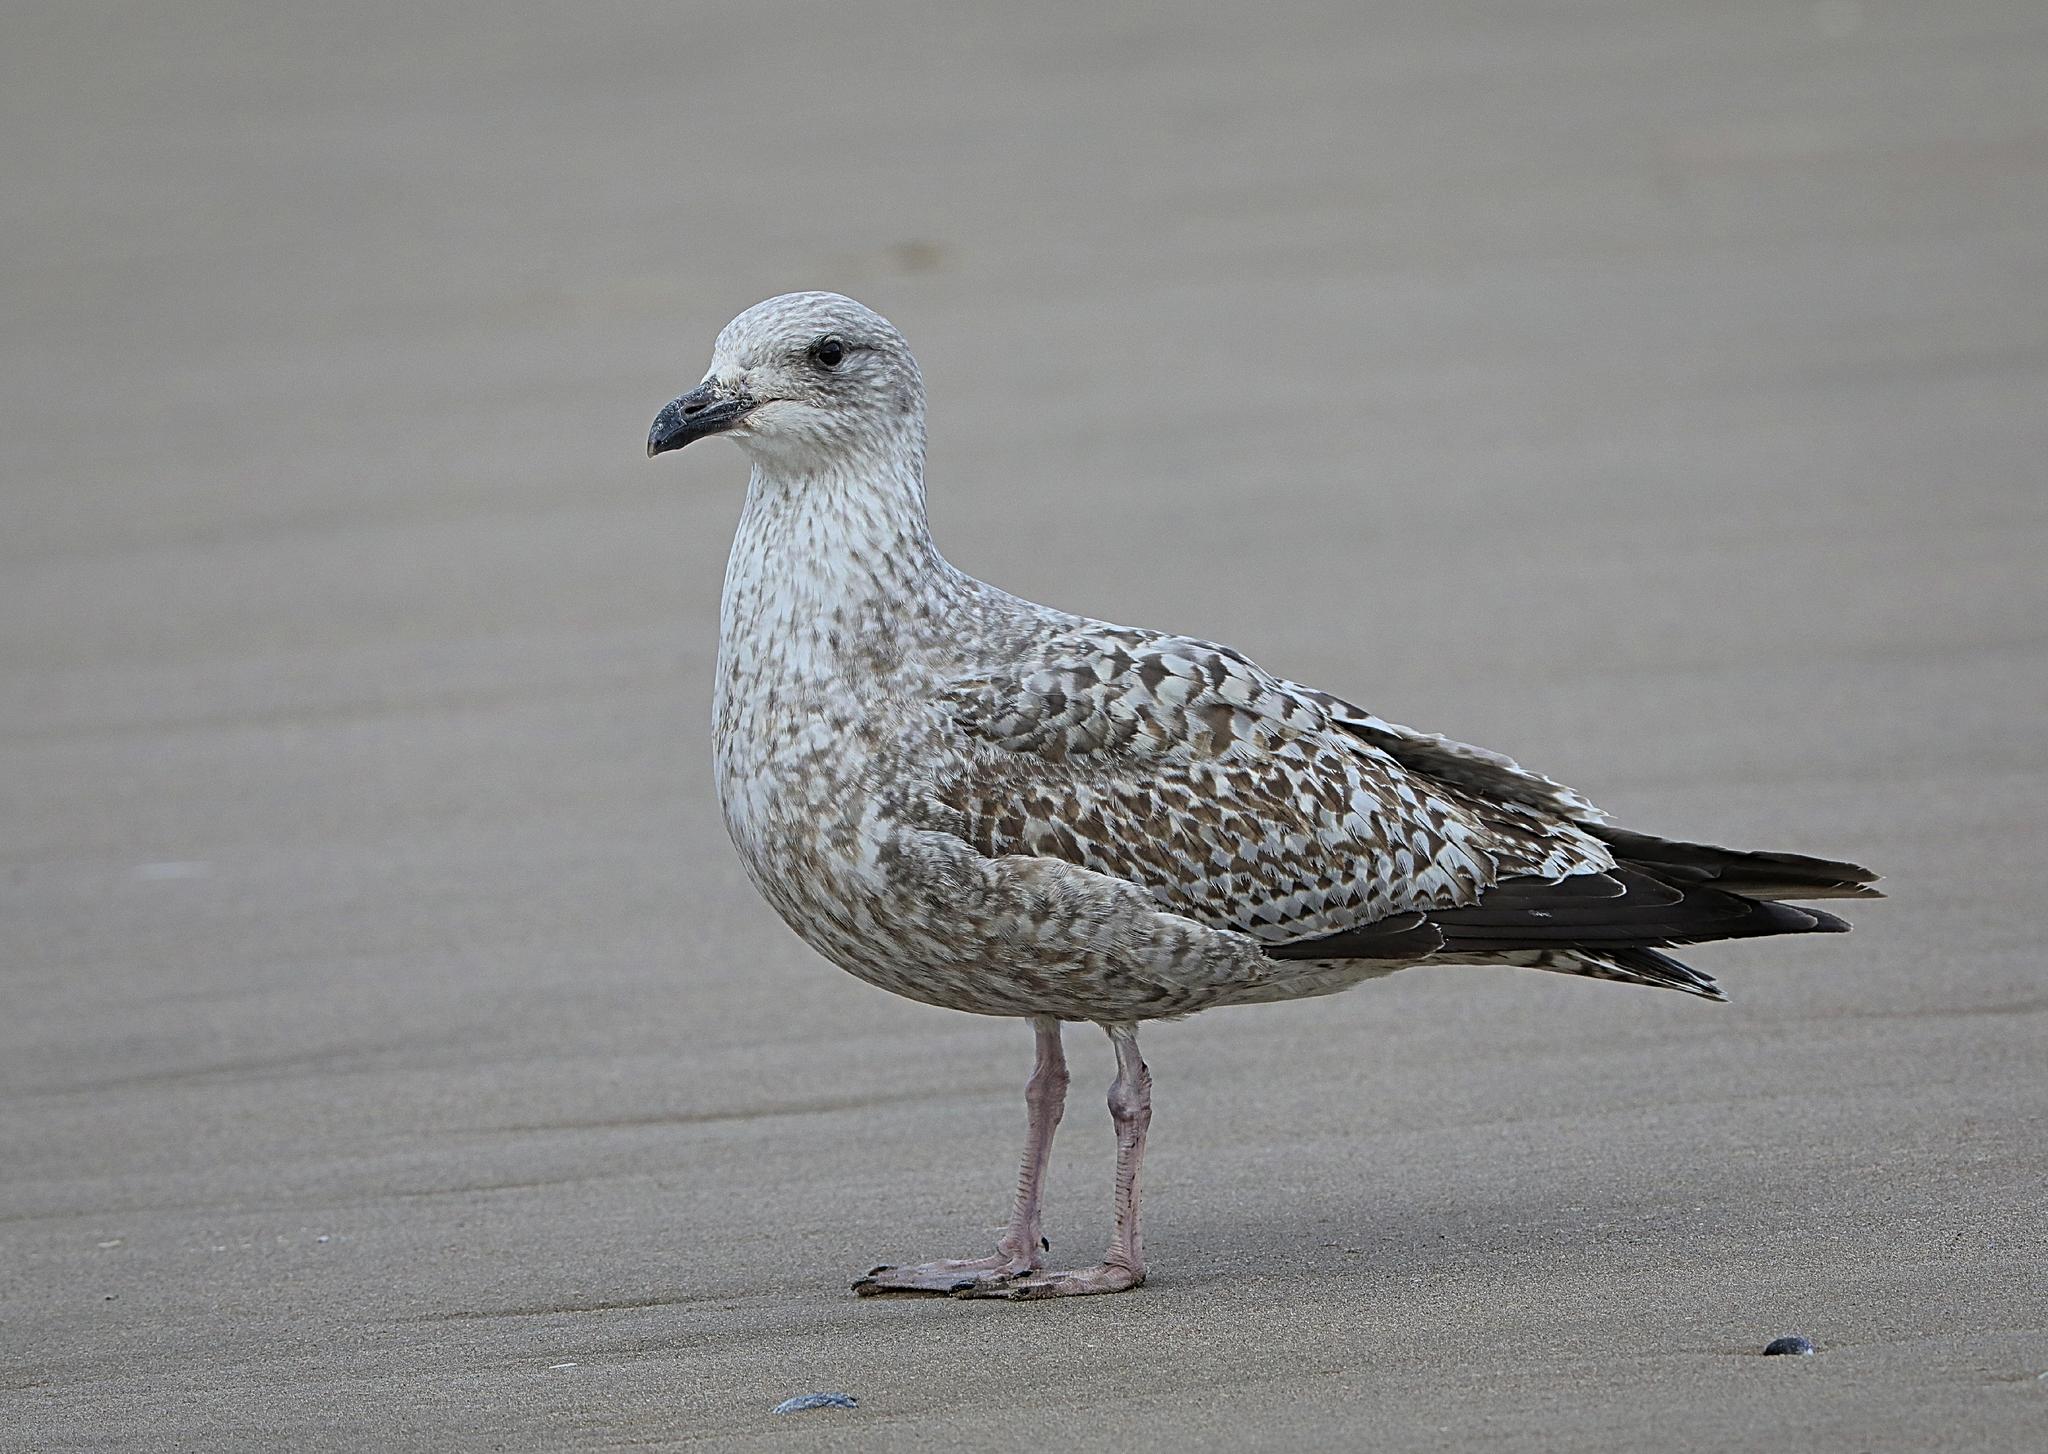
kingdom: Animalia
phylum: Chordata
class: Aves
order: Charadriiformes
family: Laridae
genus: Larus
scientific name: Larus argentatus
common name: Herring gull
